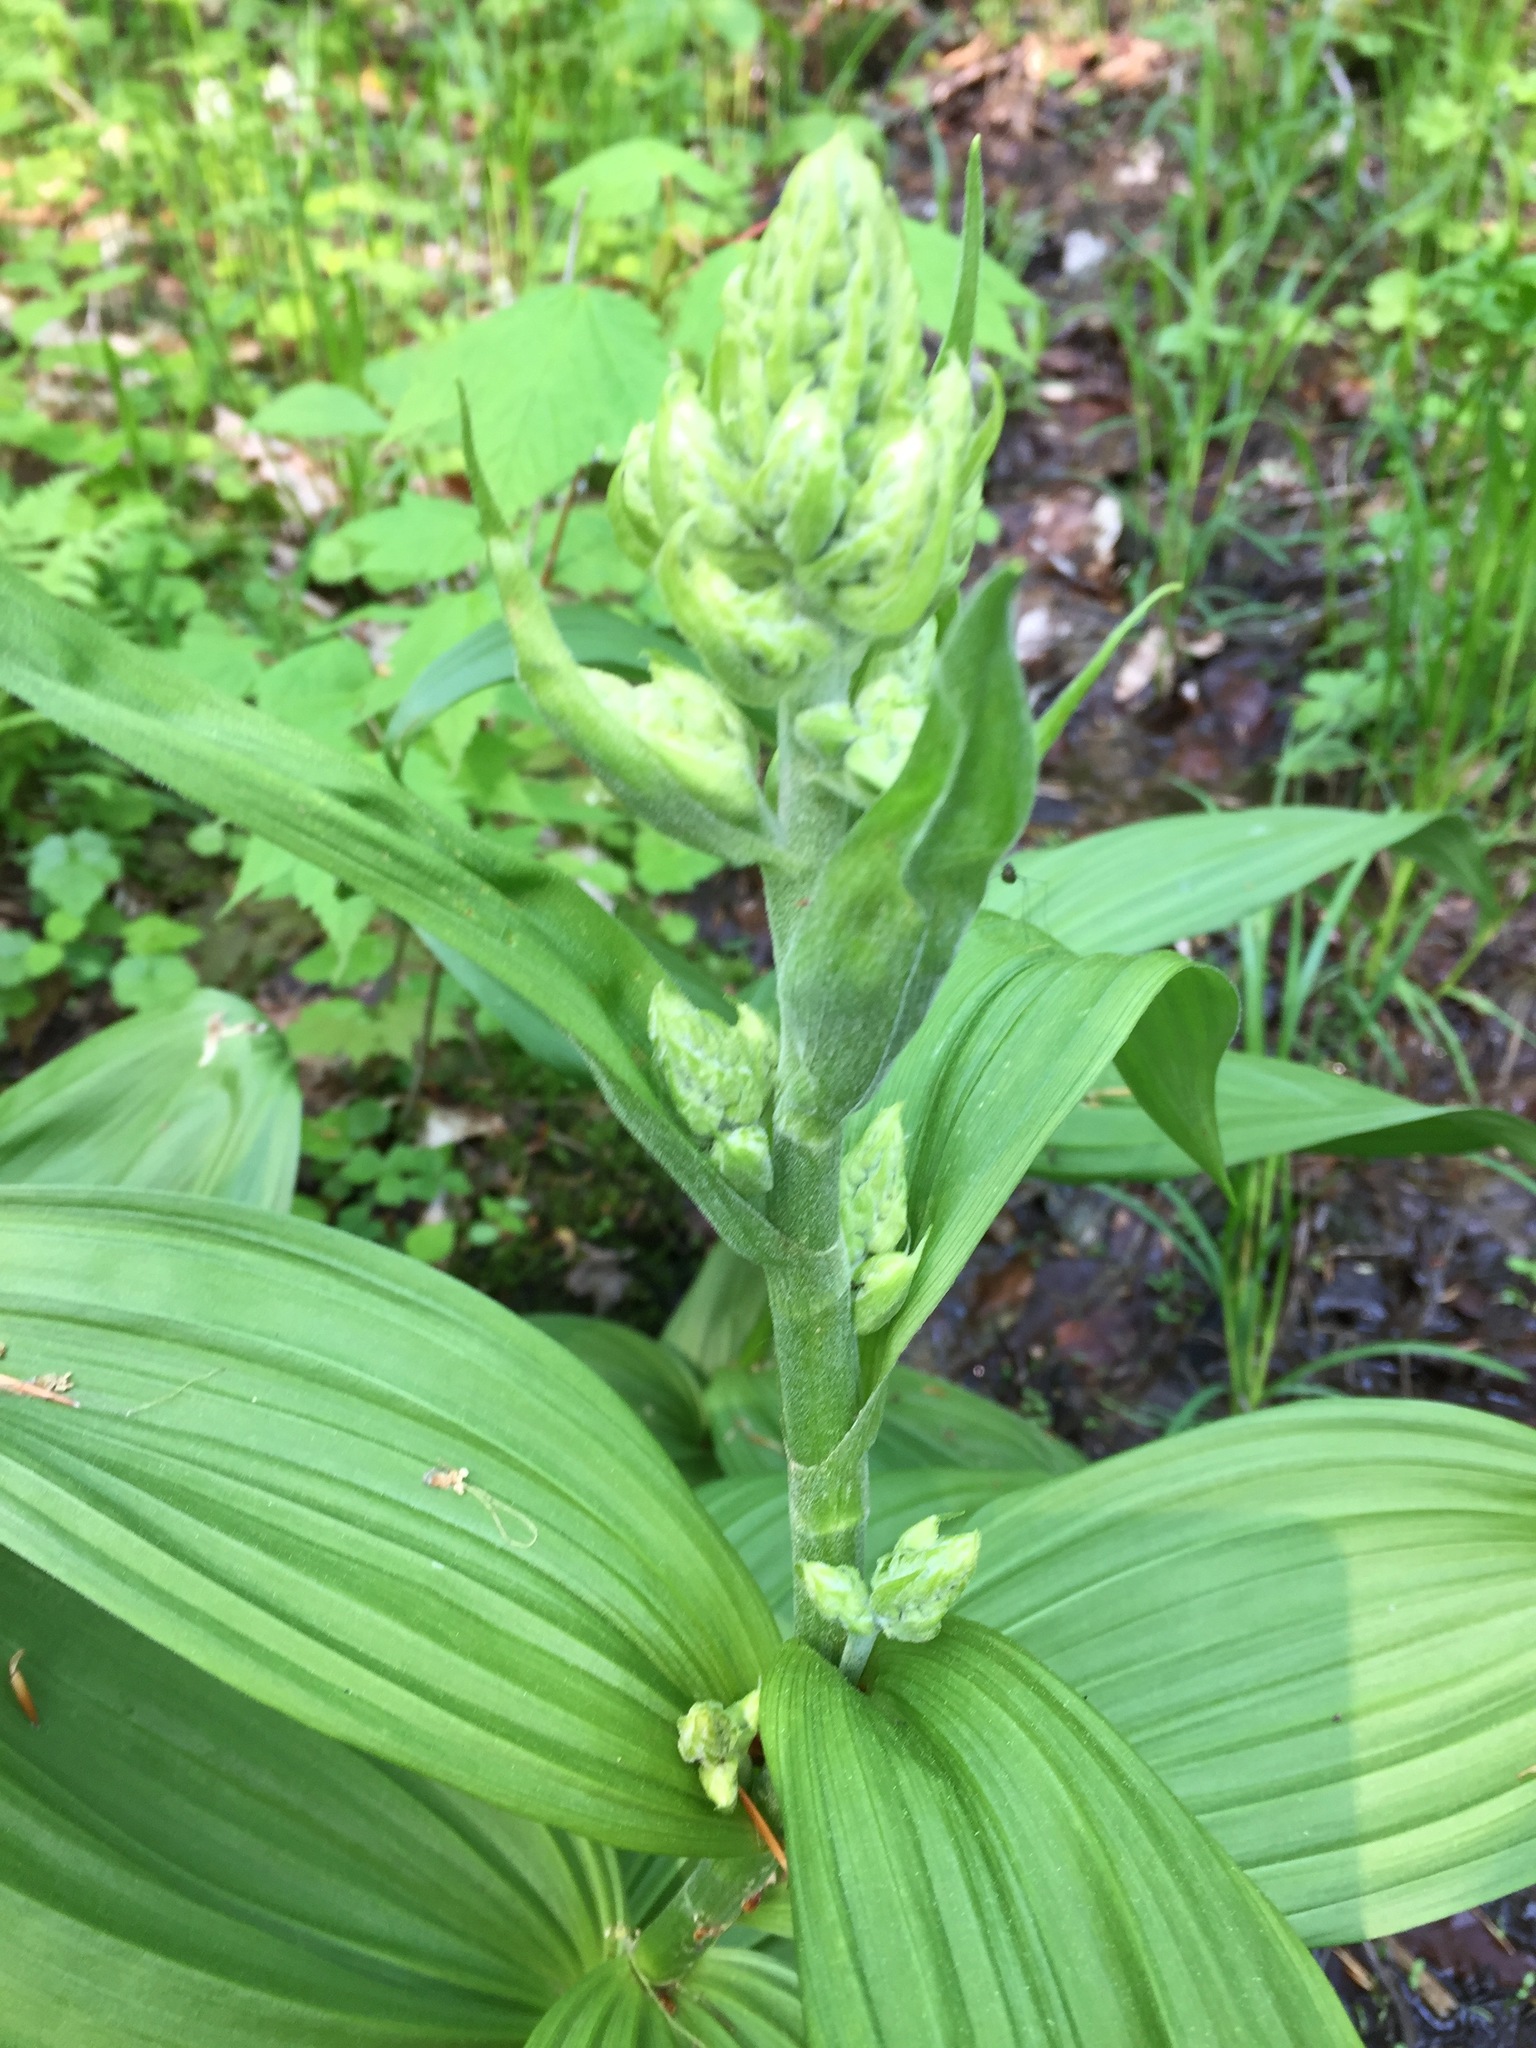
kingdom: Plantae
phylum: Tracheophyta
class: Liliopsida
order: Liliales
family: Melanthiaceae
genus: Veratrum
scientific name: Veratrum viride
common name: American false hellebore
